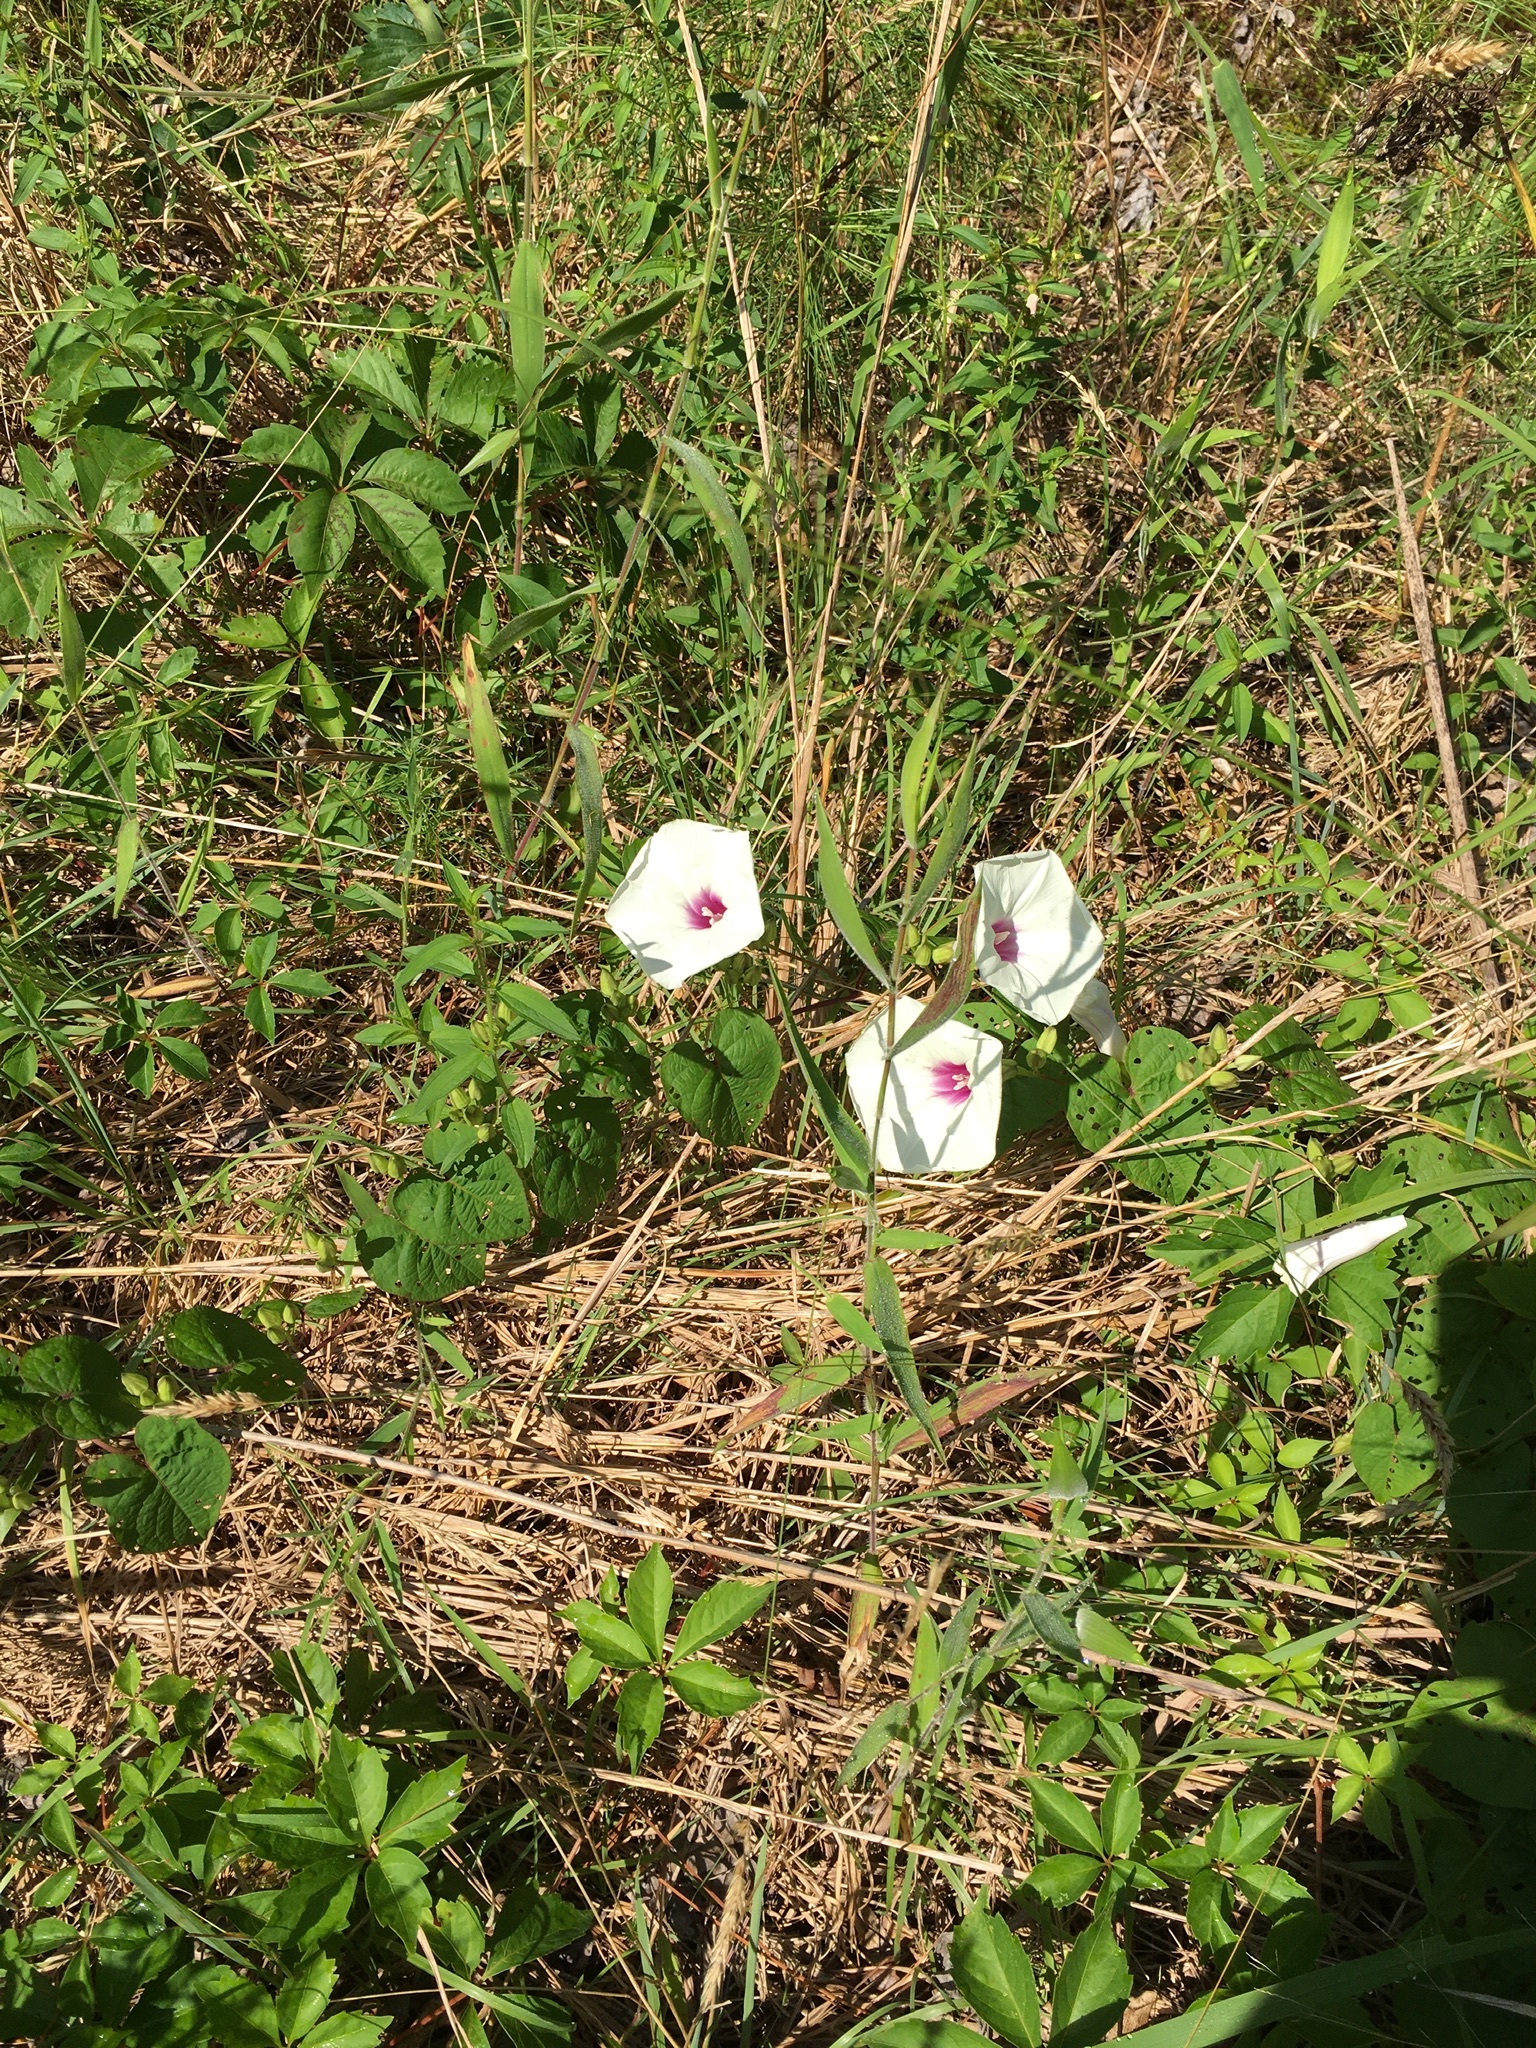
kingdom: Plantae
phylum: Tracheophyta
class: Magnoliopsida
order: Solanales
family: Convolvulaceae
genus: Ipomoea
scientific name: Ipomoea pandurata
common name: Man-of-the-earth
